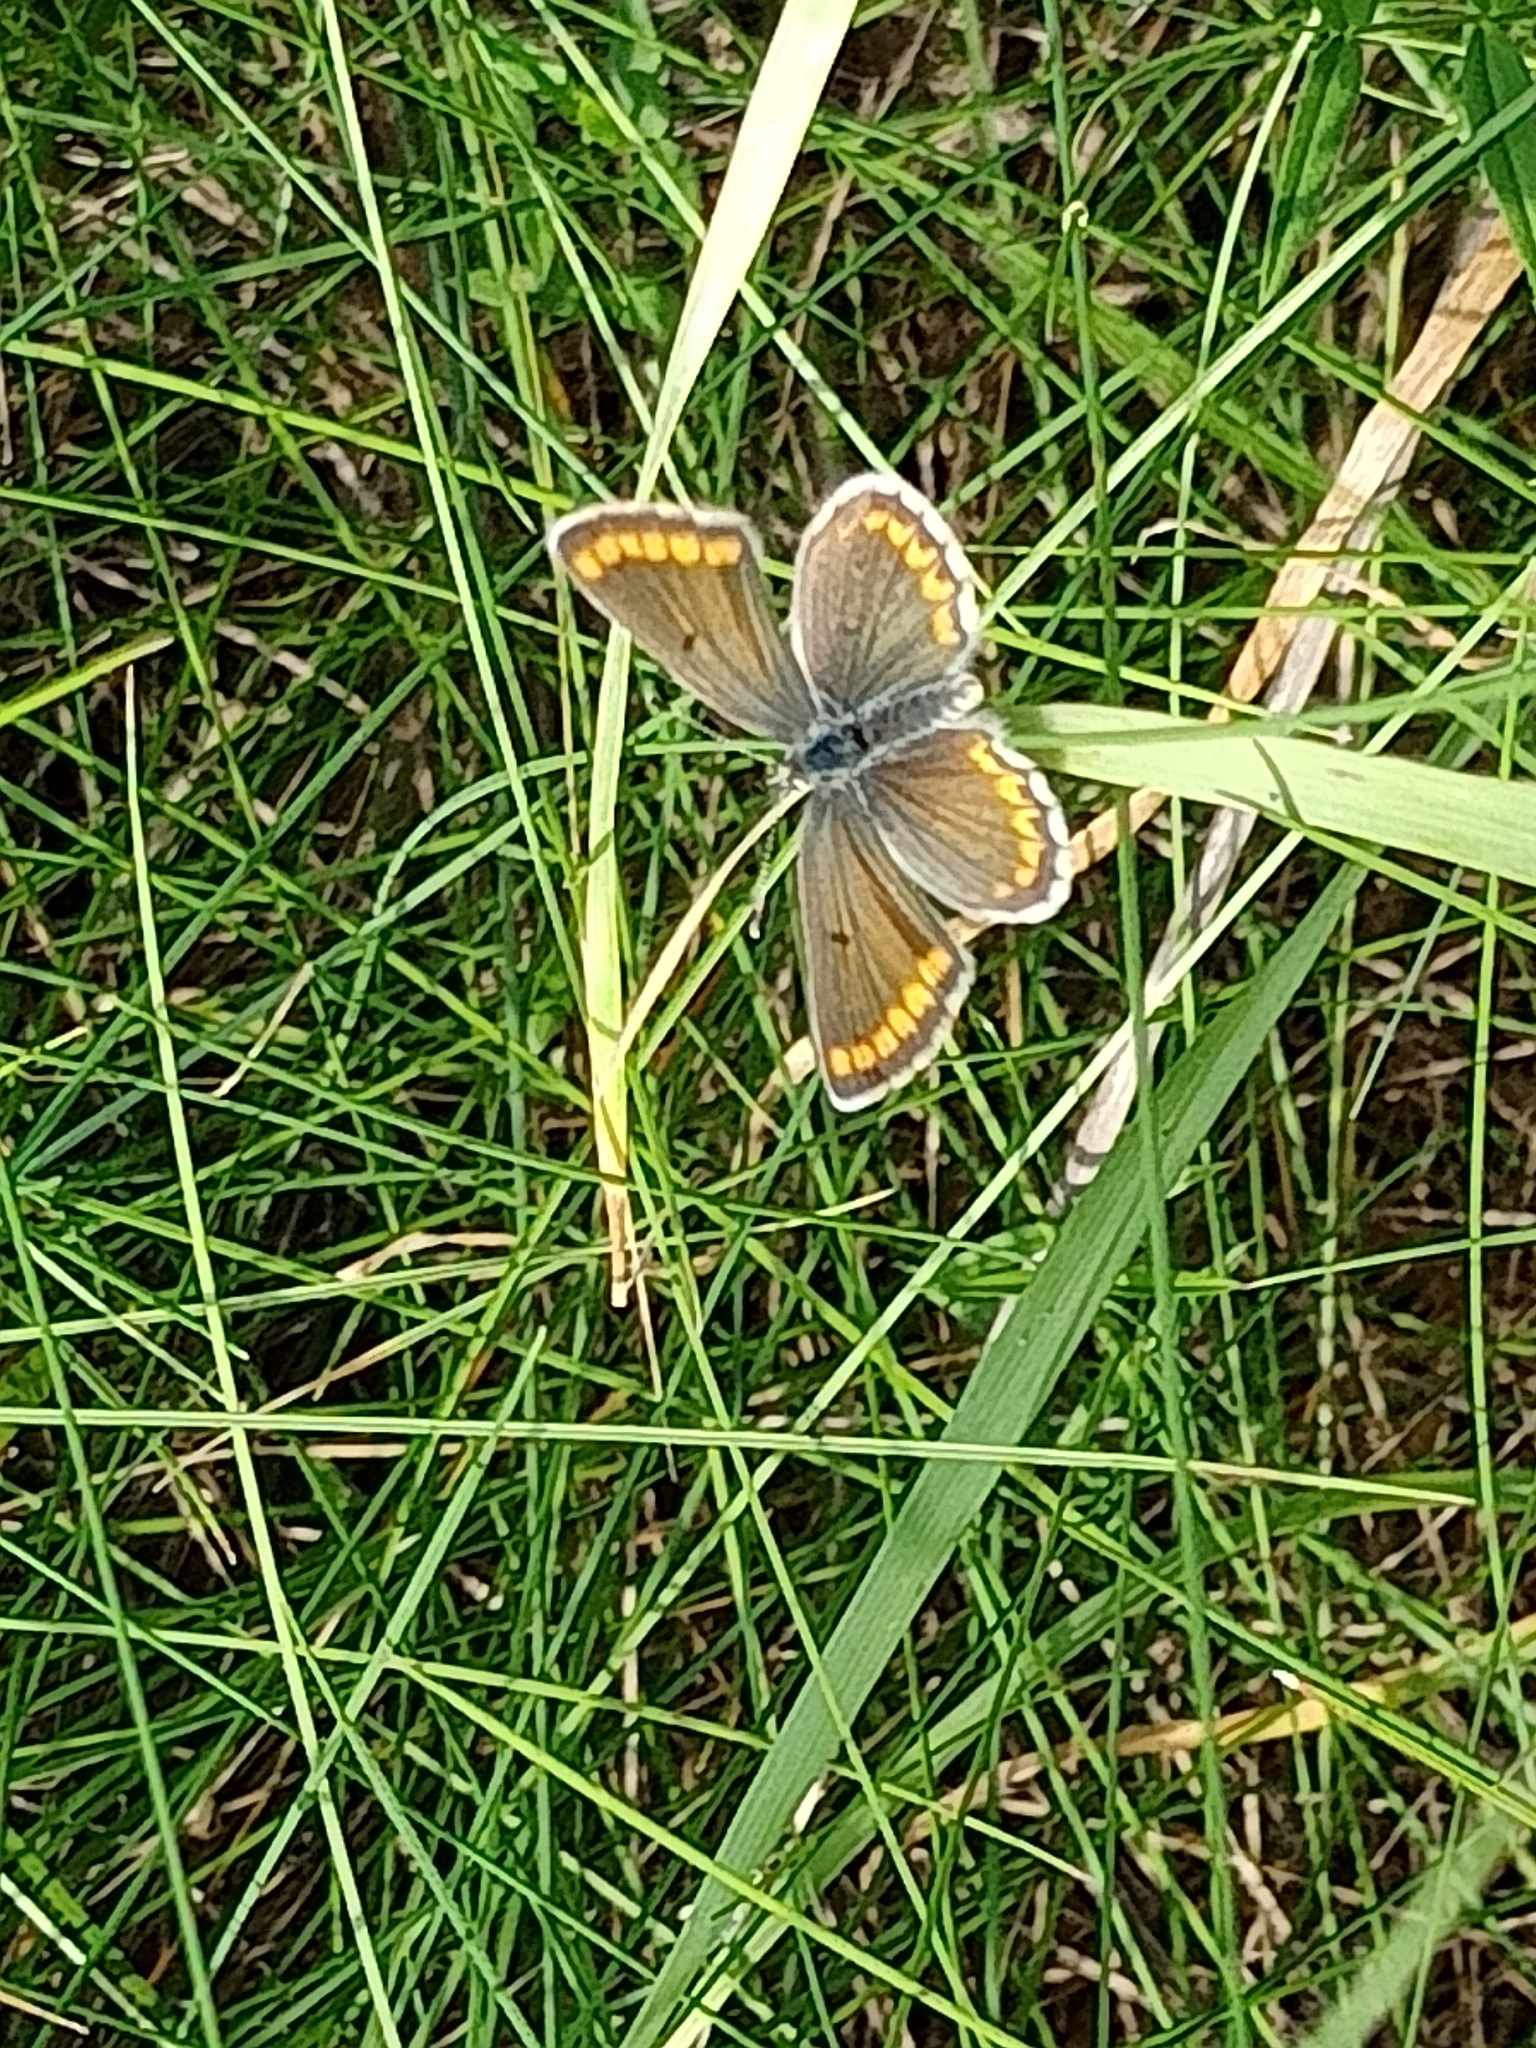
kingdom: Animalia
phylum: Arthropoda
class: Insecta
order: Lepidoptera
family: Lycaenidae
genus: Aricia
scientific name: Aricia agestis
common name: Brown argus
